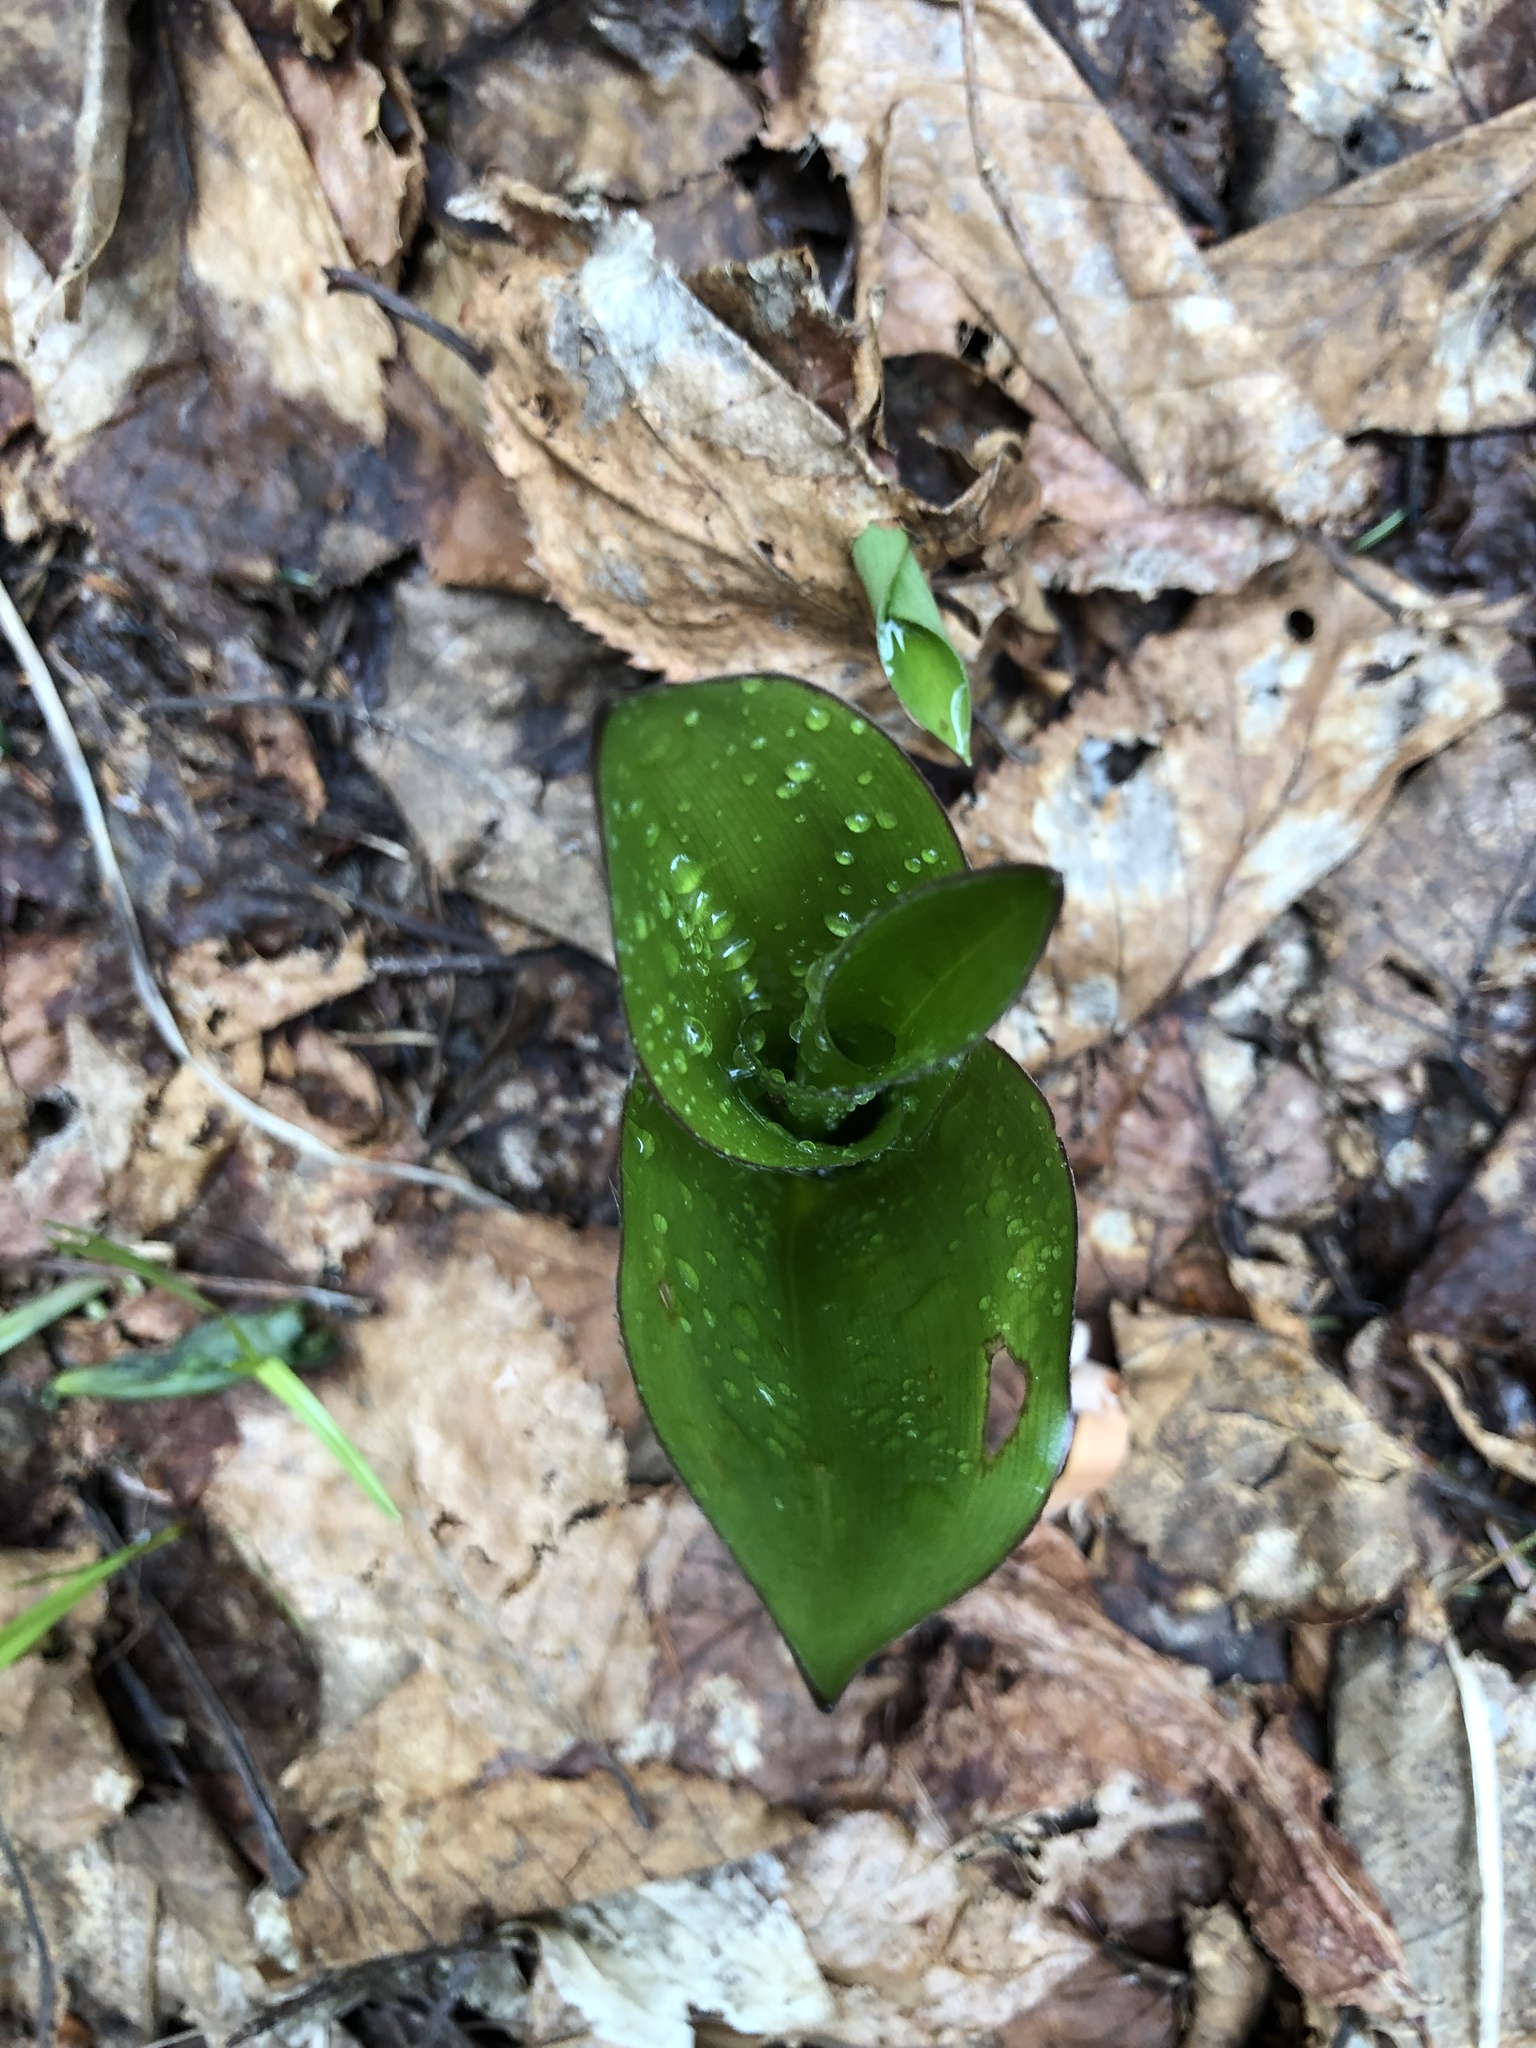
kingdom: Plantae
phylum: Tracheophyta
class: Liliopsida
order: Liliales
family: Liliaceae
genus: Clintonia
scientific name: Clintonia borealis
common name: Yellow clintonia
